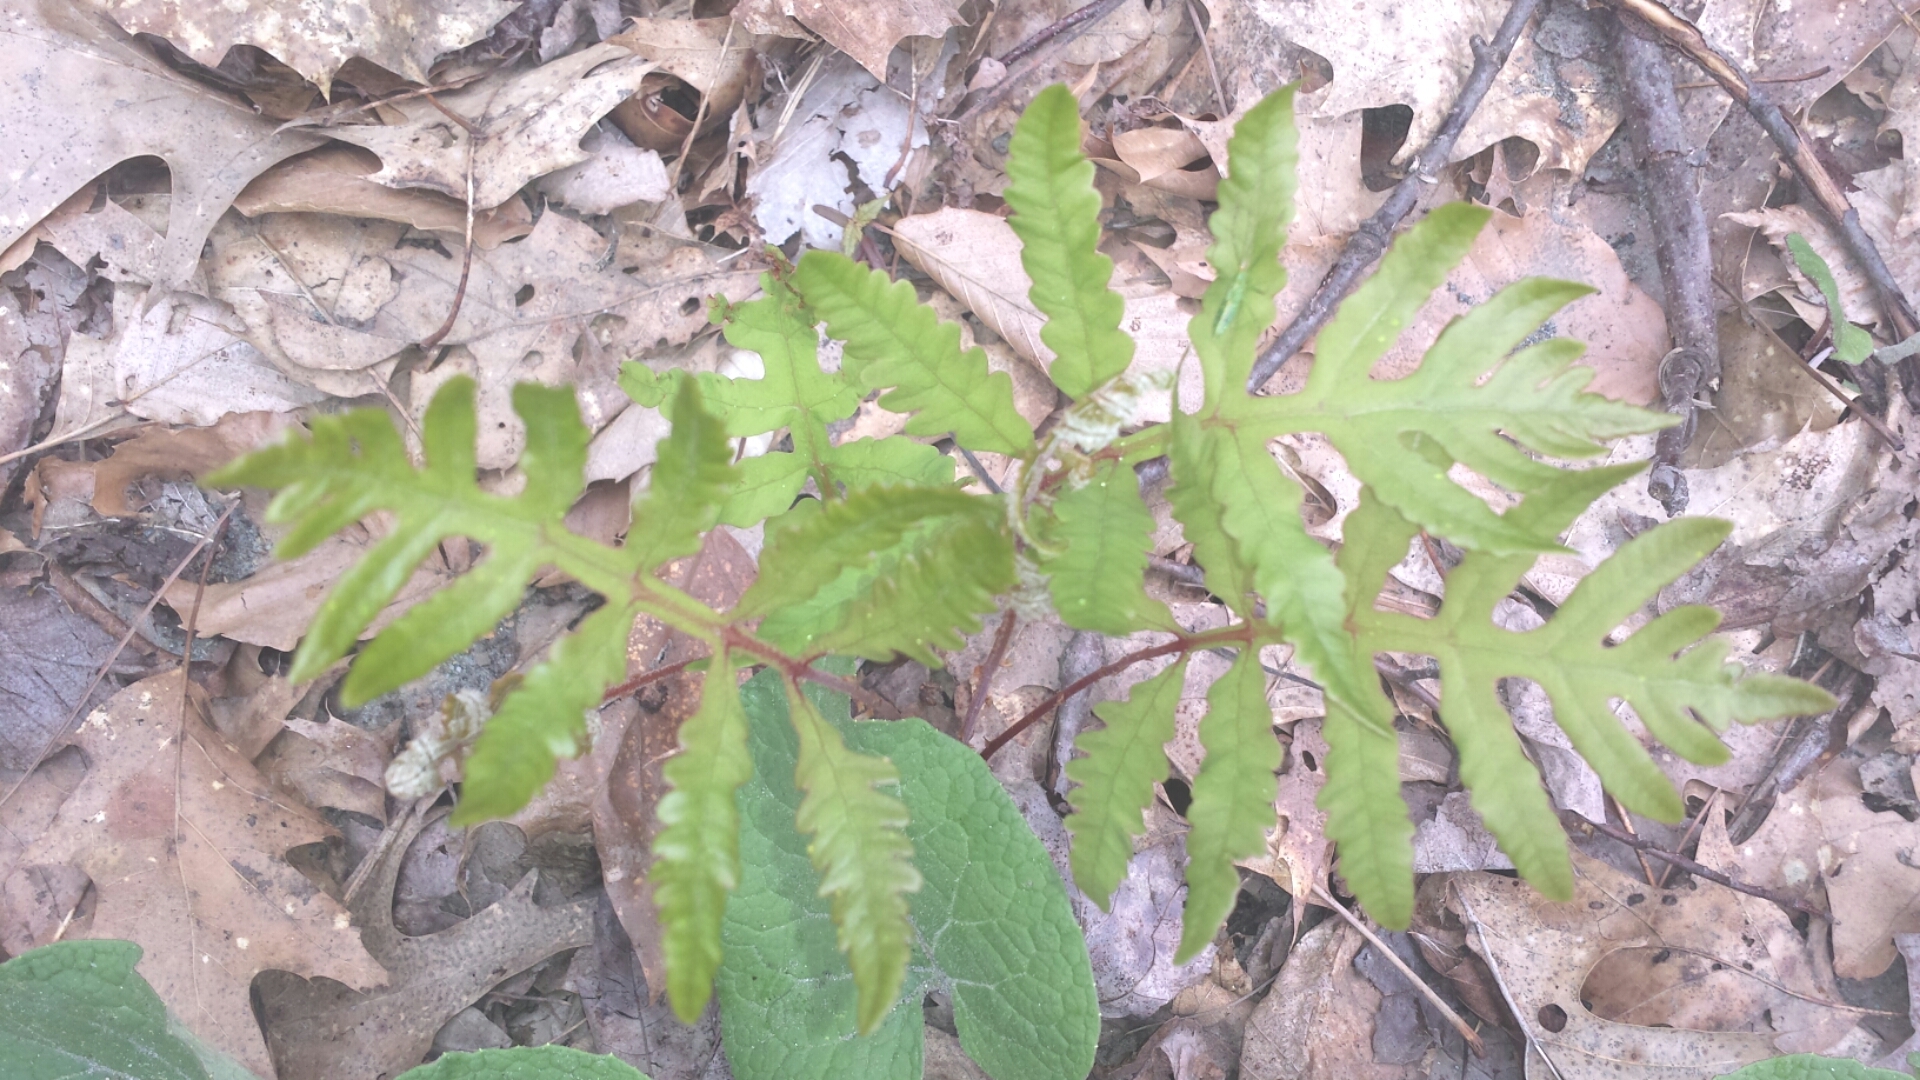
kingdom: Plantae
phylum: Tracheophyta
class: Polypodiopsida
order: Polypodiales
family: Onocleaceae
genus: Onoclea
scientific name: Onoclea sensibilis
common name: Sensitive fern
